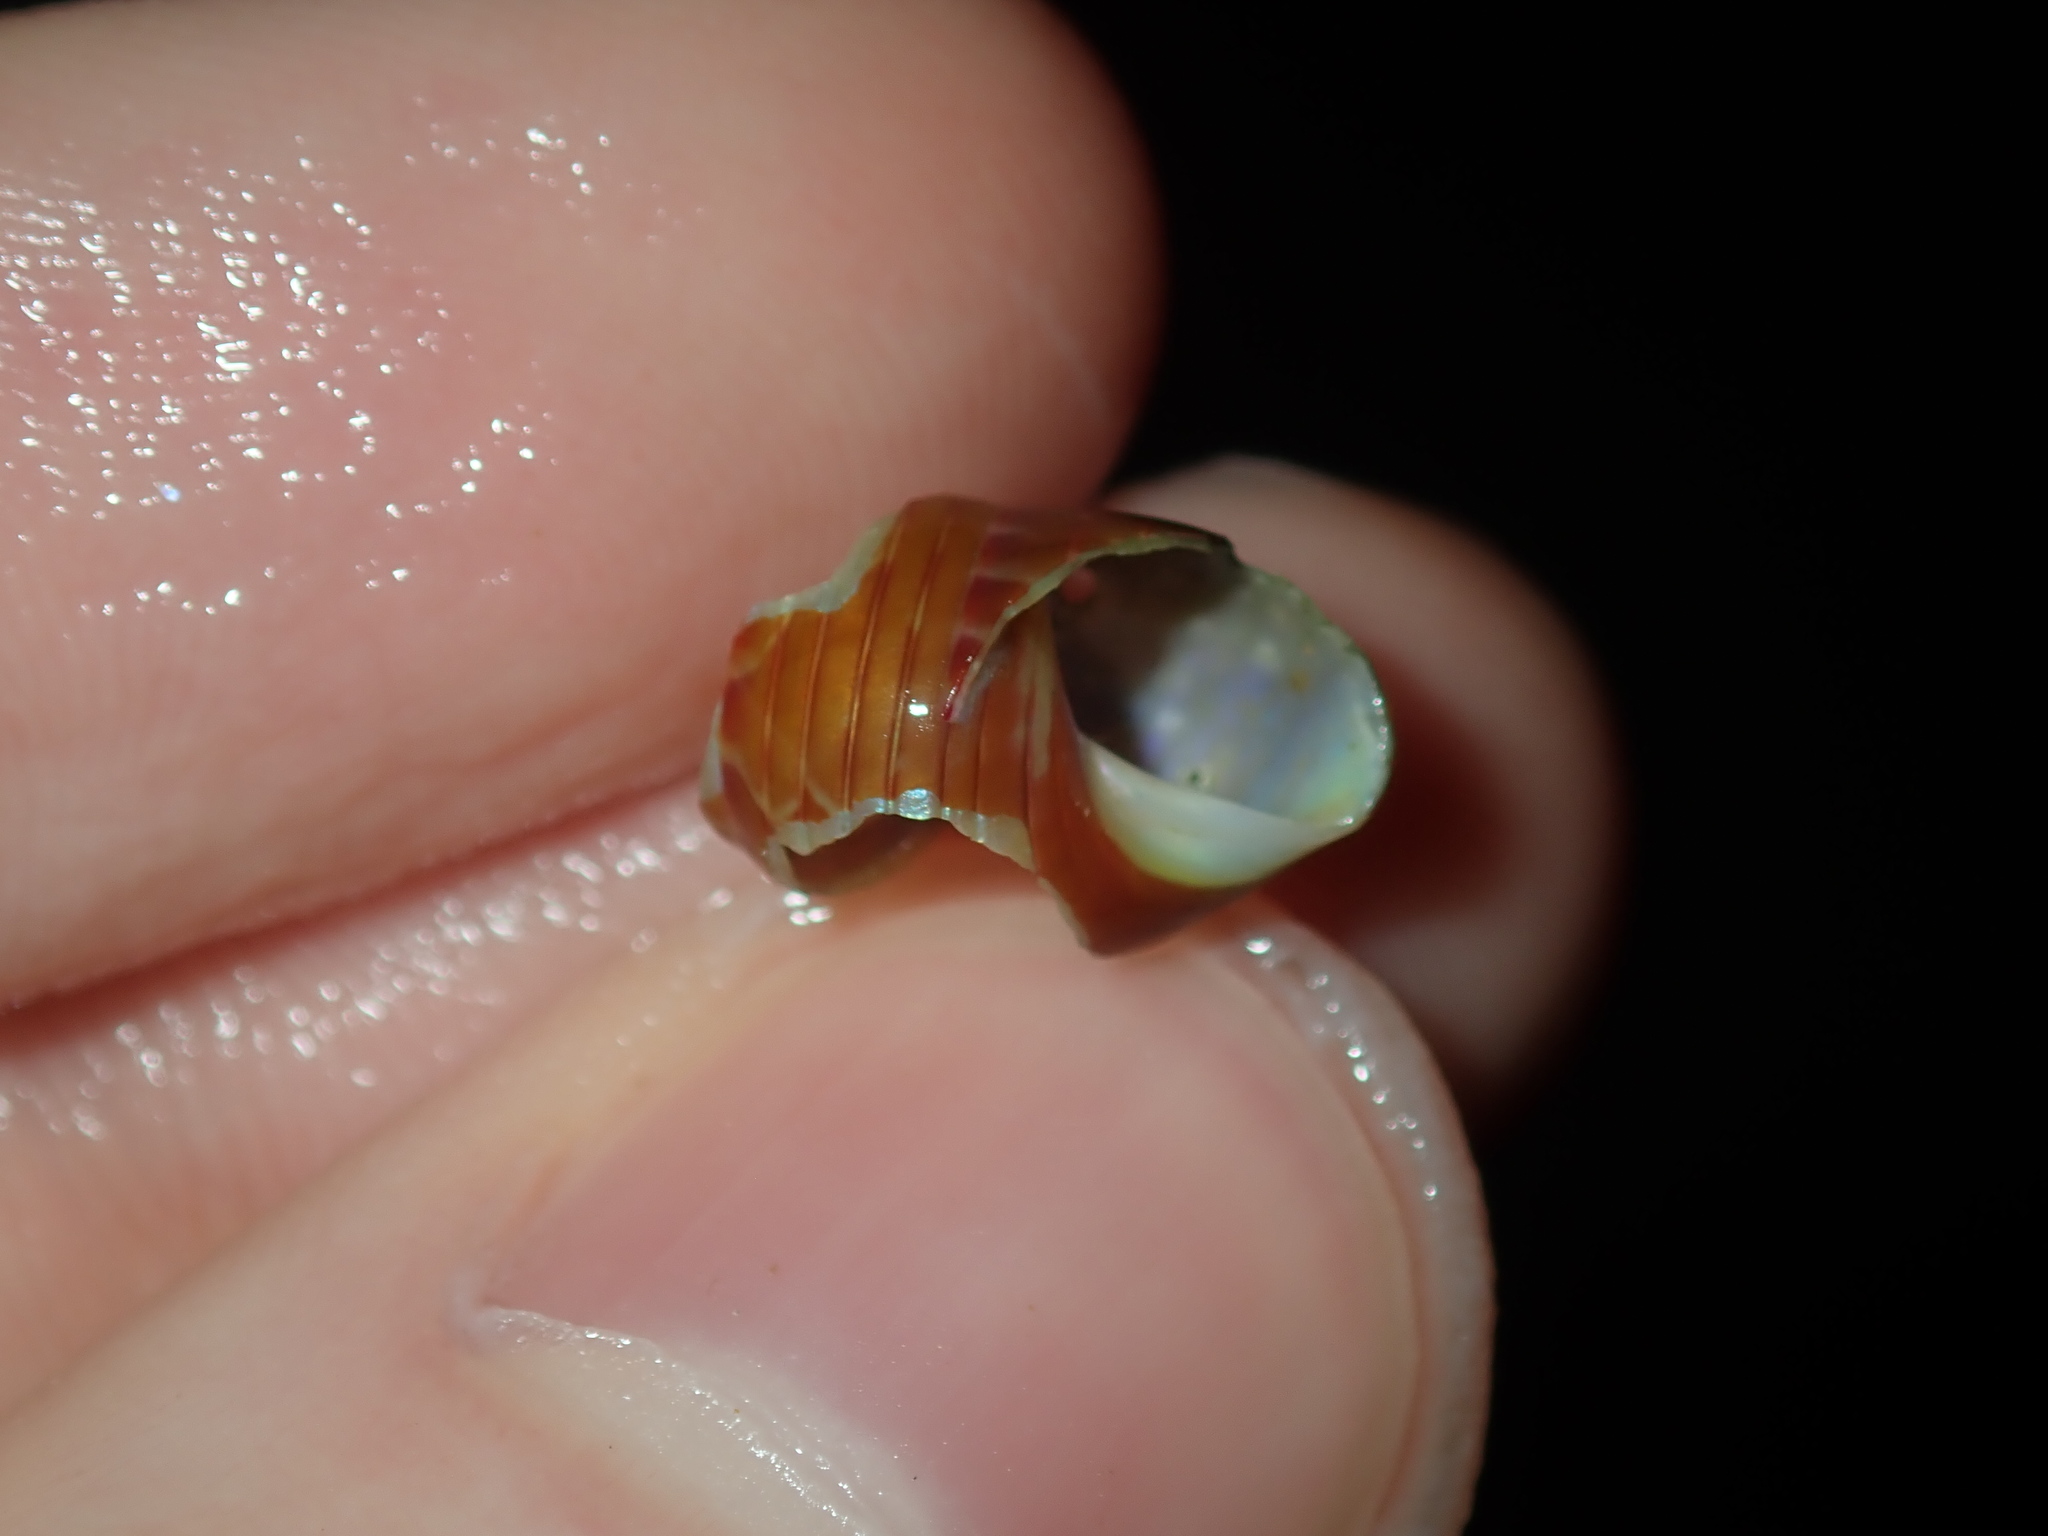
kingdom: Animalia
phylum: Mollusca
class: Gastropoda
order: Trochida
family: Trochidae
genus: Phasianotrochus
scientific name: Phasianotrochus eximius
